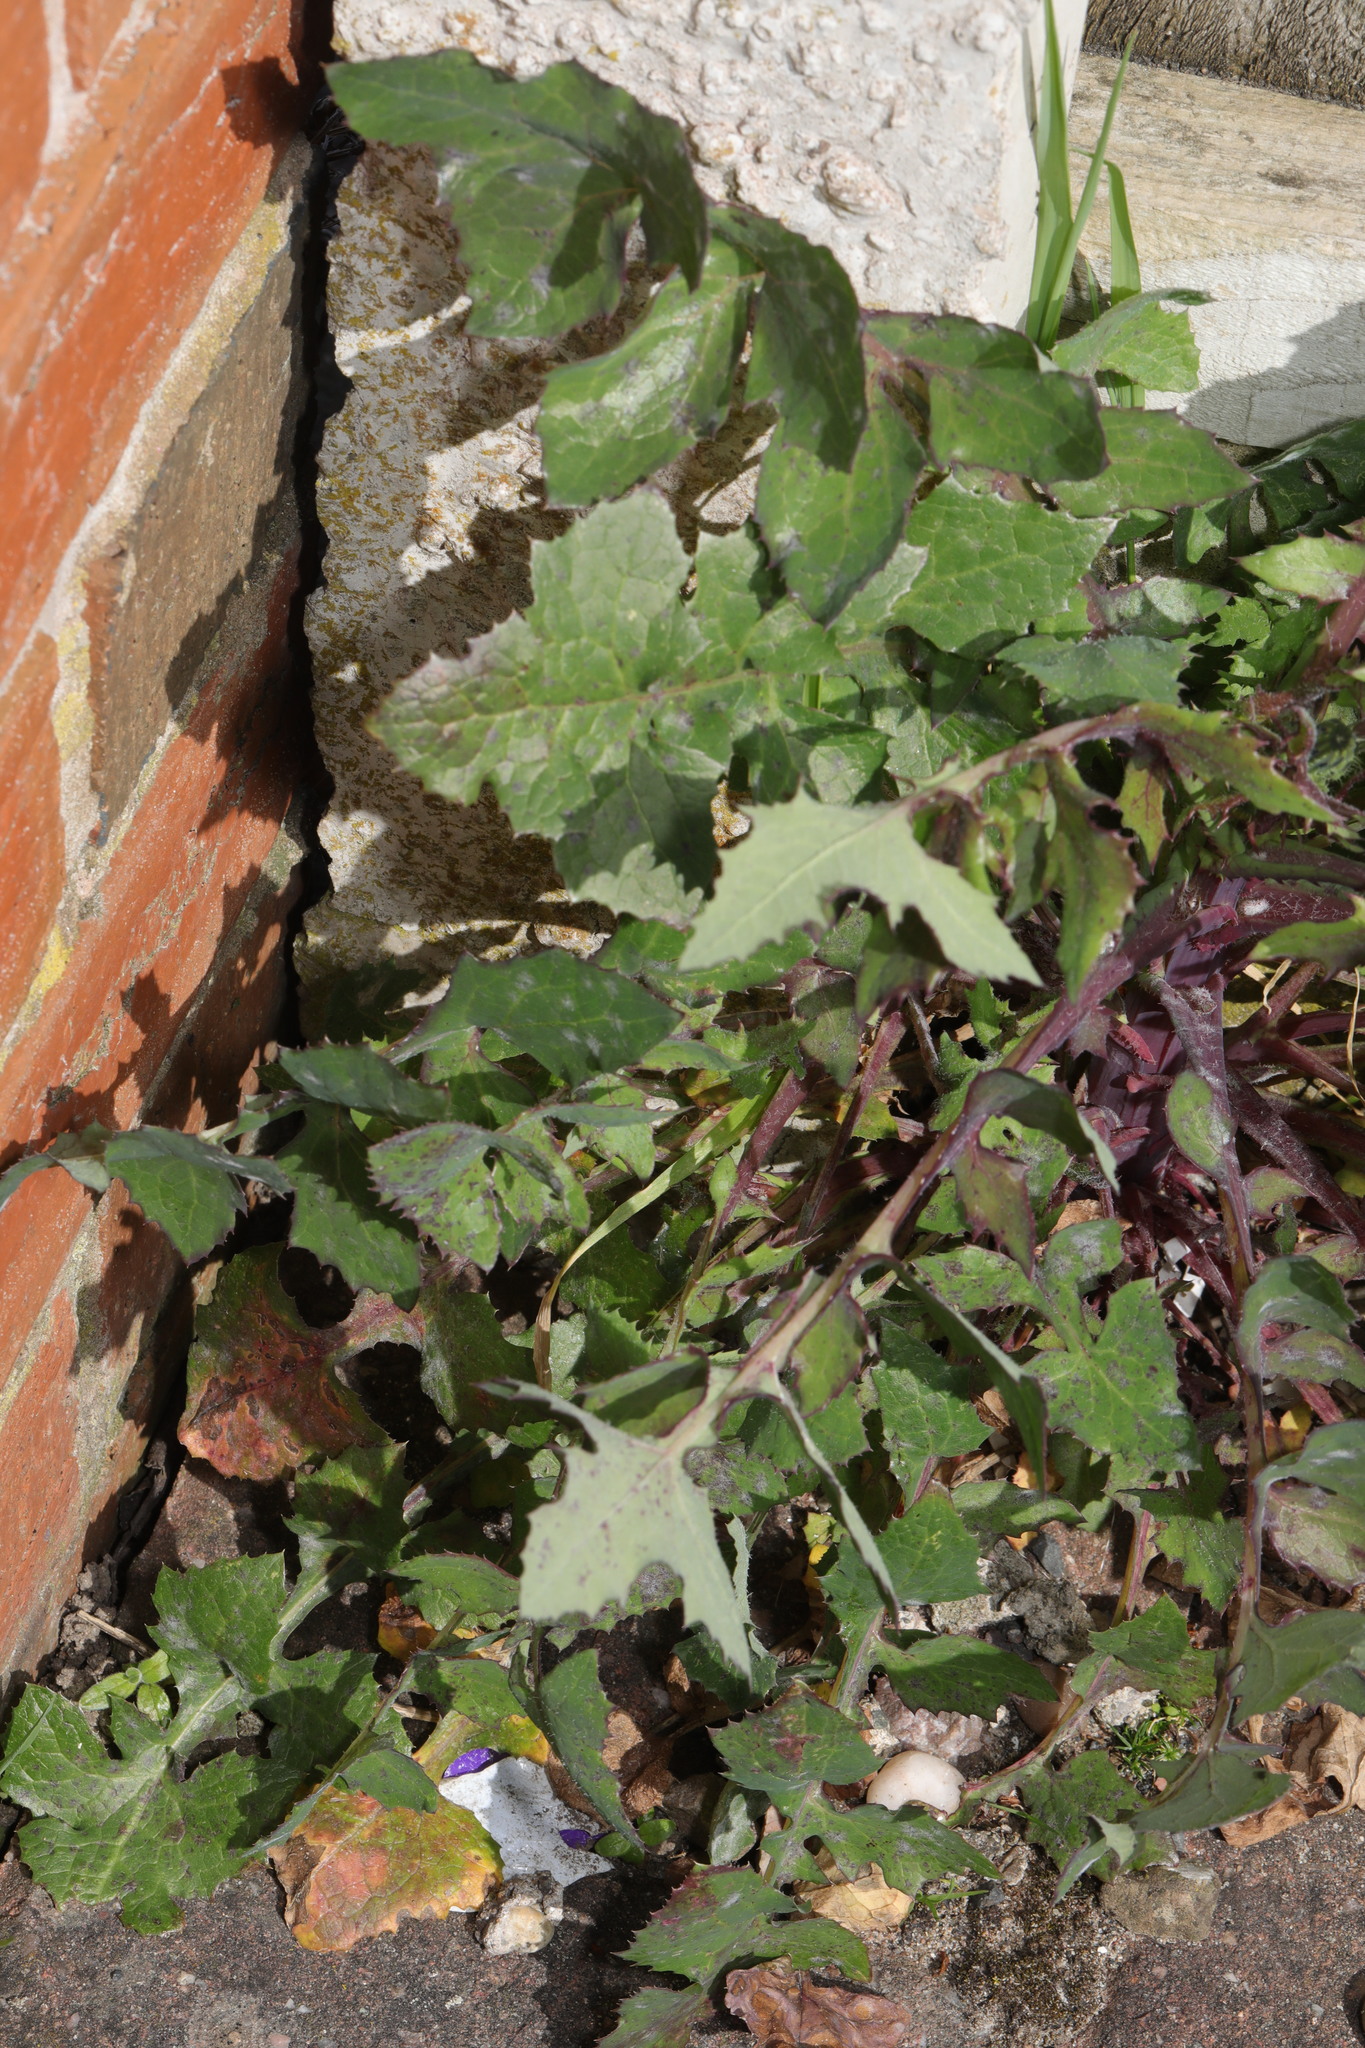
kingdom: Plantae
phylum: Tracheophyta
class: Magnoliopsida
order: Asterales
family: Asteraceae
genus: Sonchus
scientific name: Sonchus oleraceus
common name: Common sowthistle
